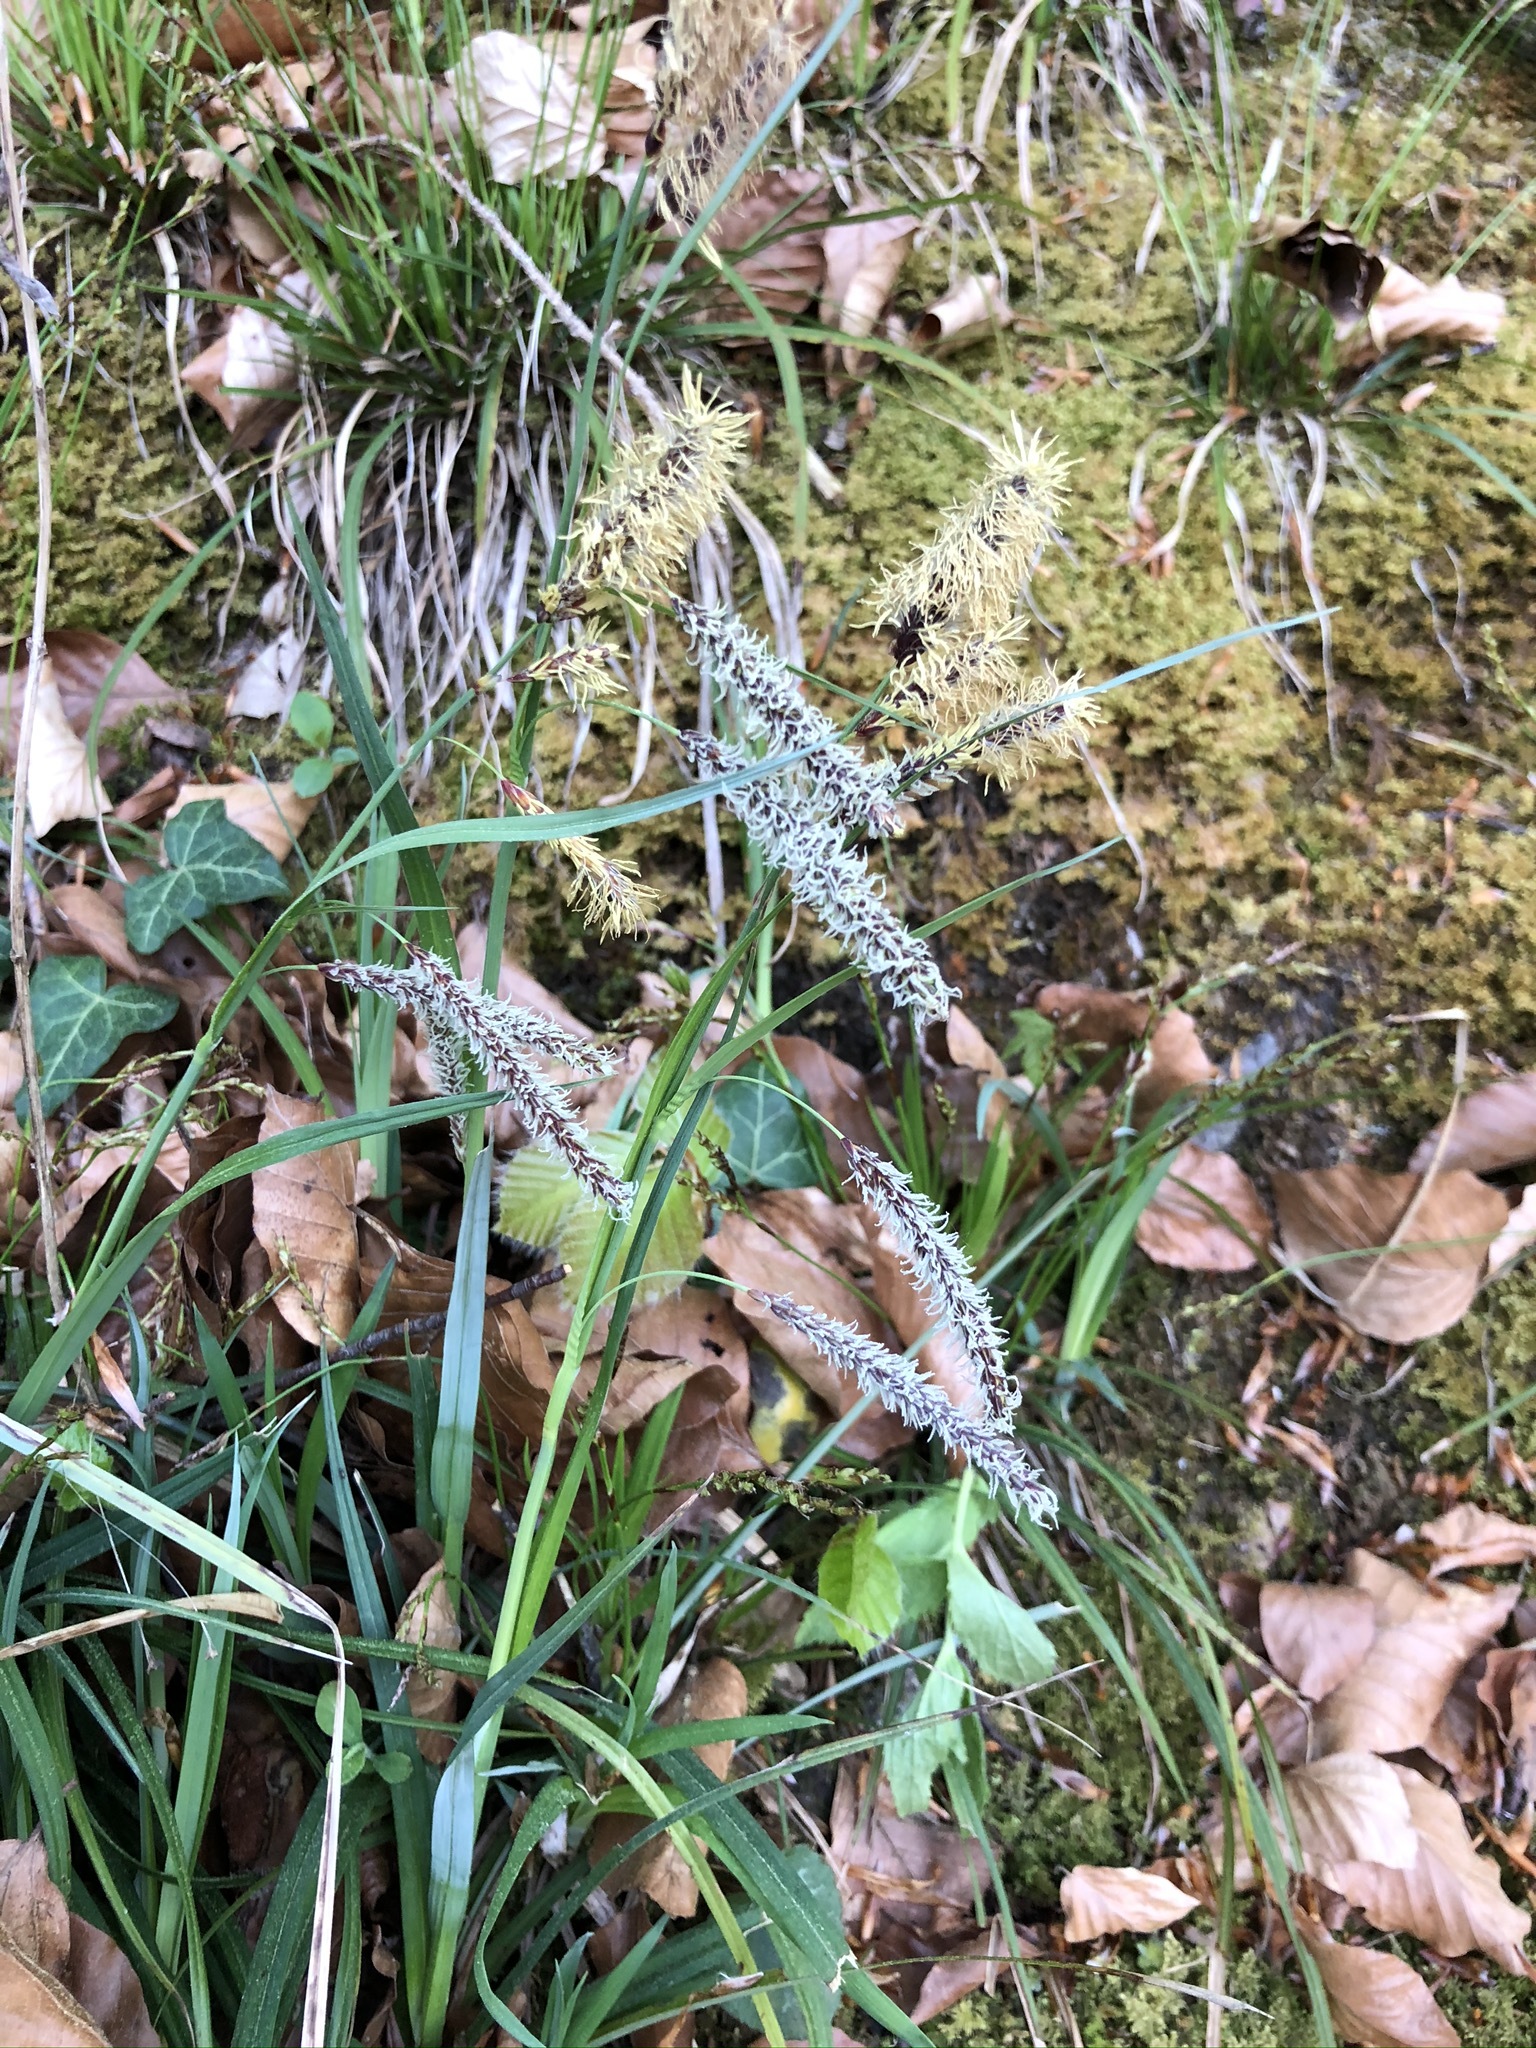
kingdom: Plantae
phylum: Tracheophyta
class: Liliopsida
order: Poales
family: Cyperaceae
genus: Carex
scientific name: Carex flacca
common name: Glaucous sedge
